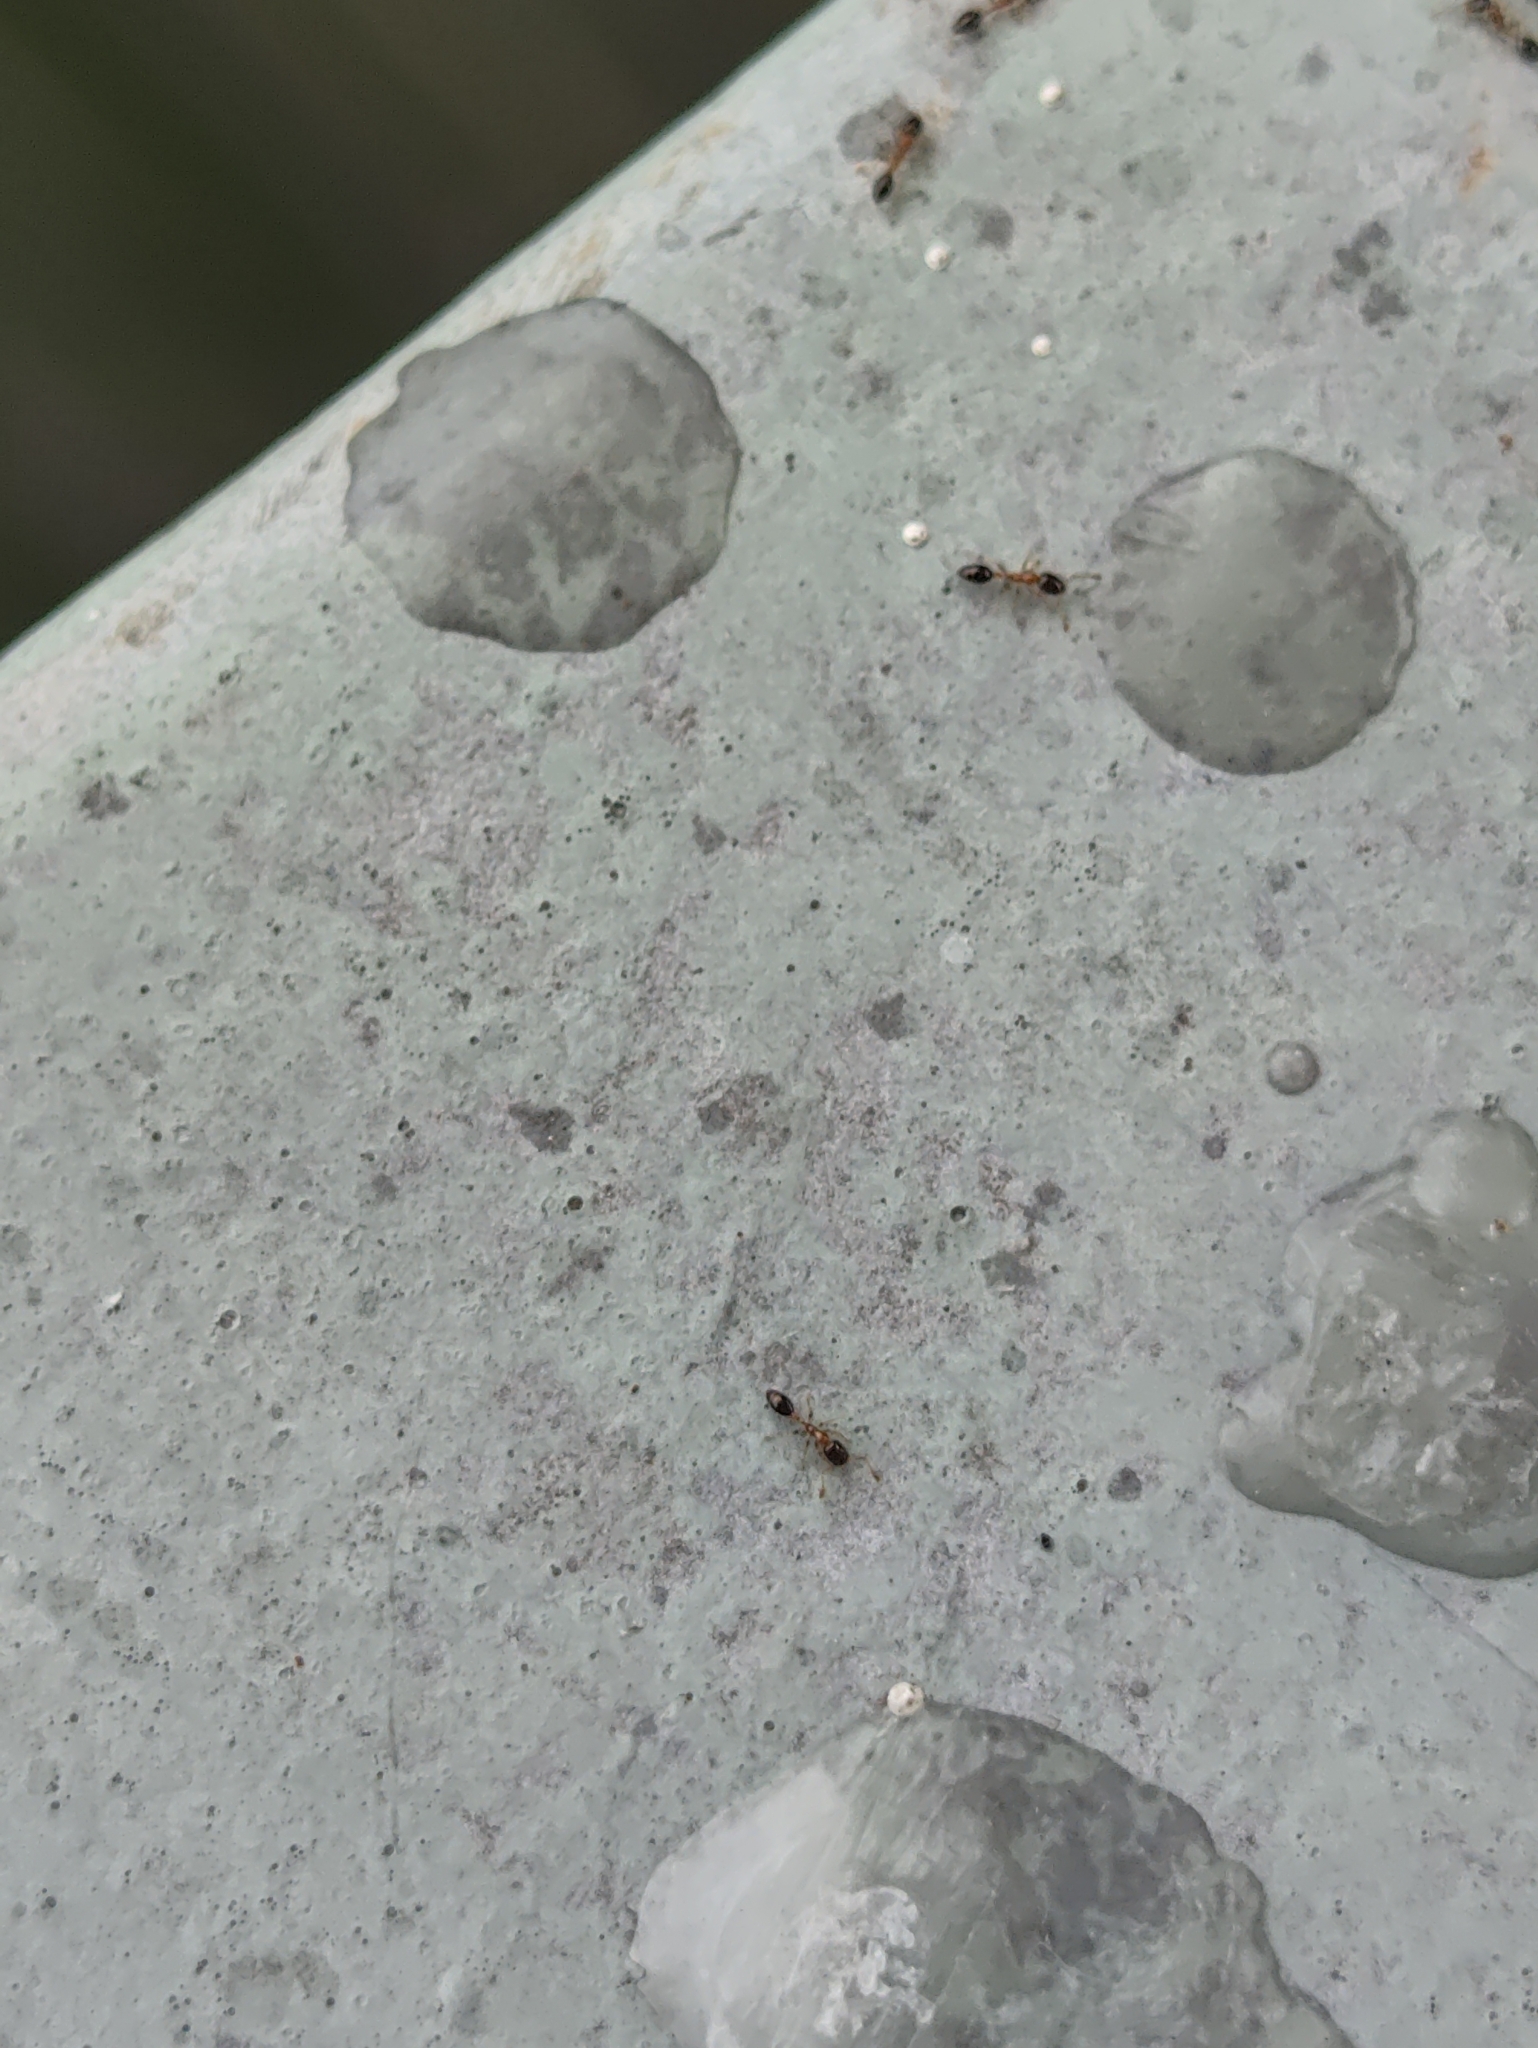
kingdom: Animalia
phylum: Arthropoda
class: Insecta
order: Hymenoptera
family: Formicidae
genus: Monomorium
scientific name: Monomorium floricola
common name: Bicolored trailing ant
